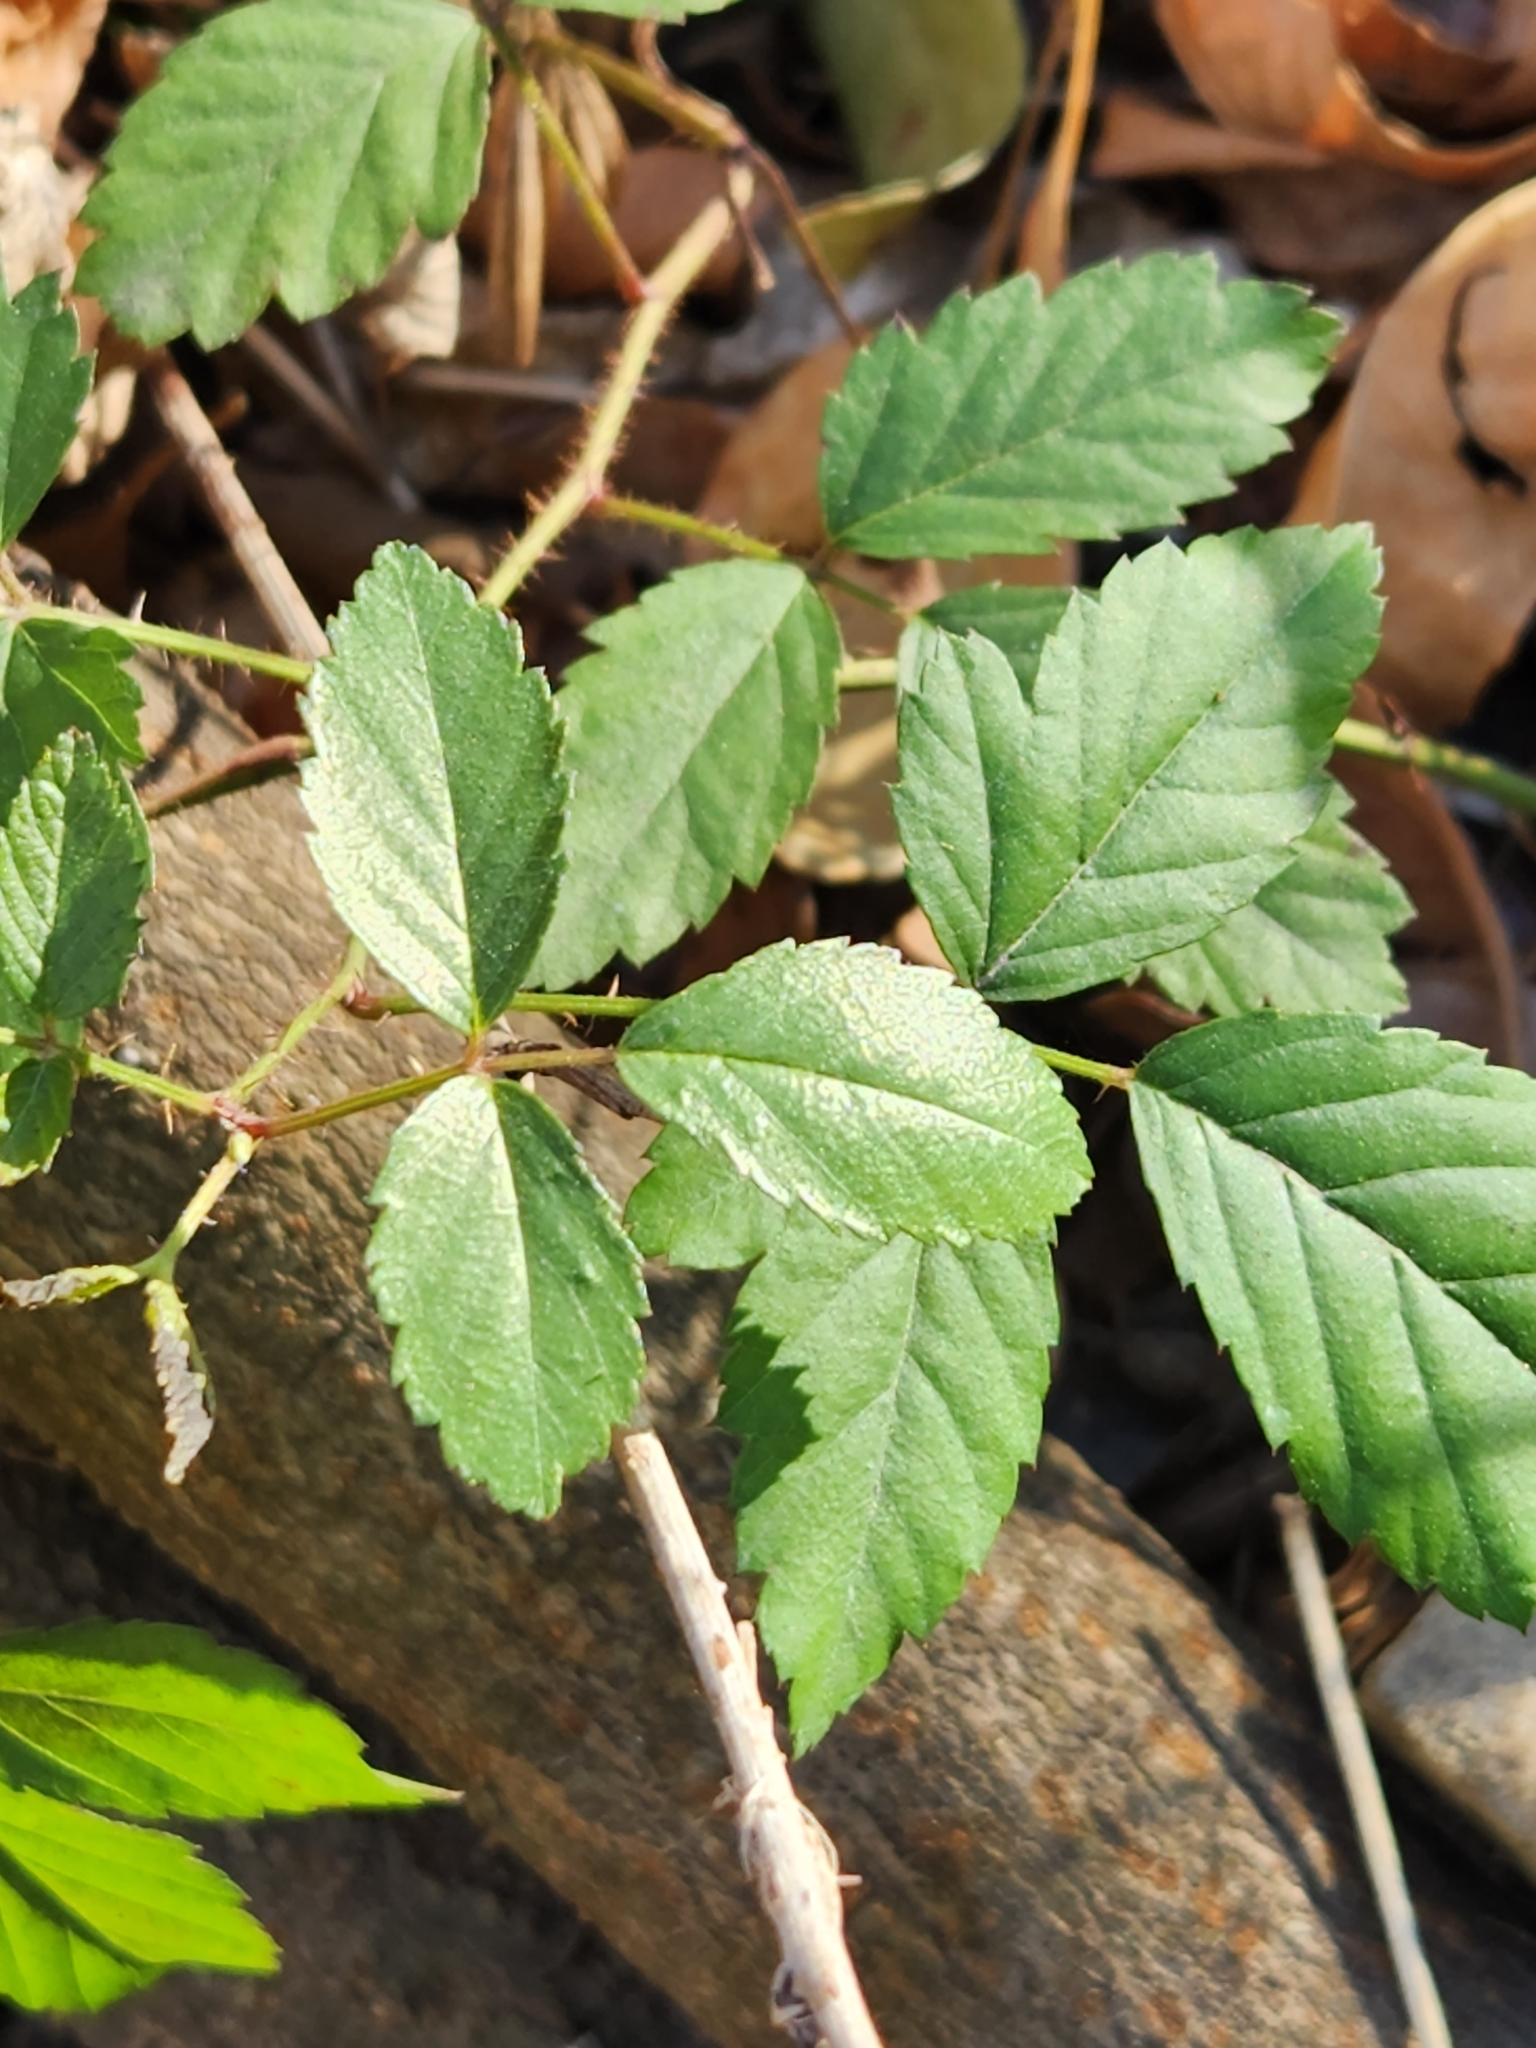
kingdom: Plantae
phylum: Tracheophyta
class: Magnoliopsida
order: Rosales
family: Rosaceae
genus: Rubus
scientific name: Rubus trivialis
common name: Southern dewberry
